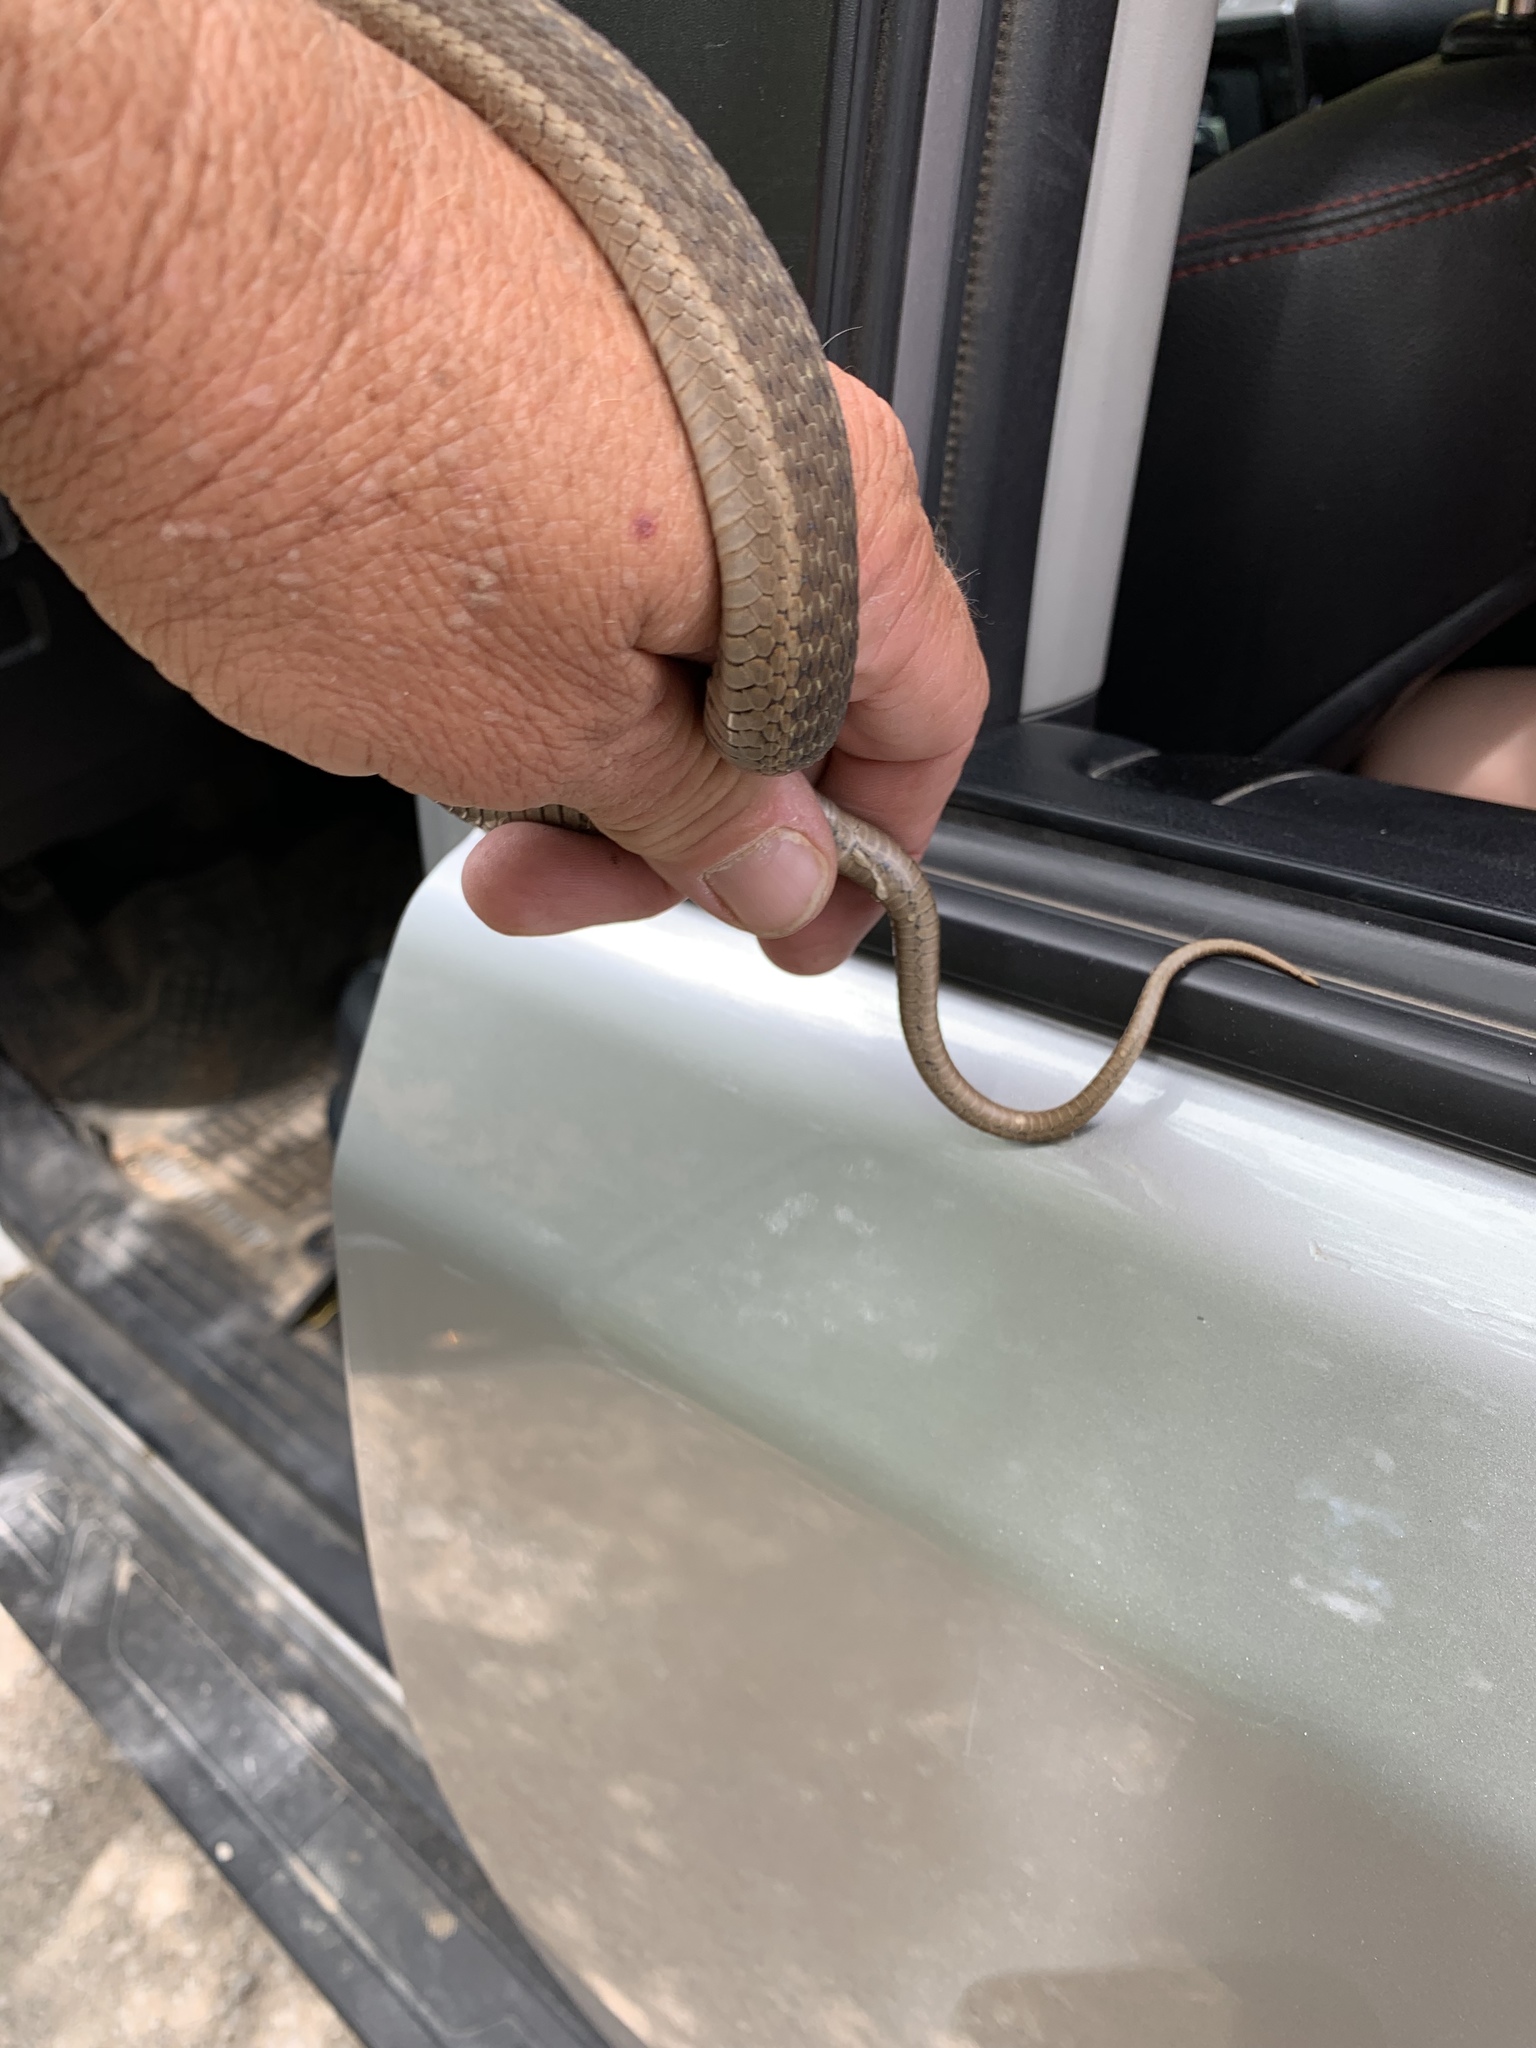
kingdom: Animalia
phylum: Chordata
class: Squamata
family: Colubridae
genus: Thamnophis
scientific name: Thamnophis elegans
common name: Western terrestrial garter snake
